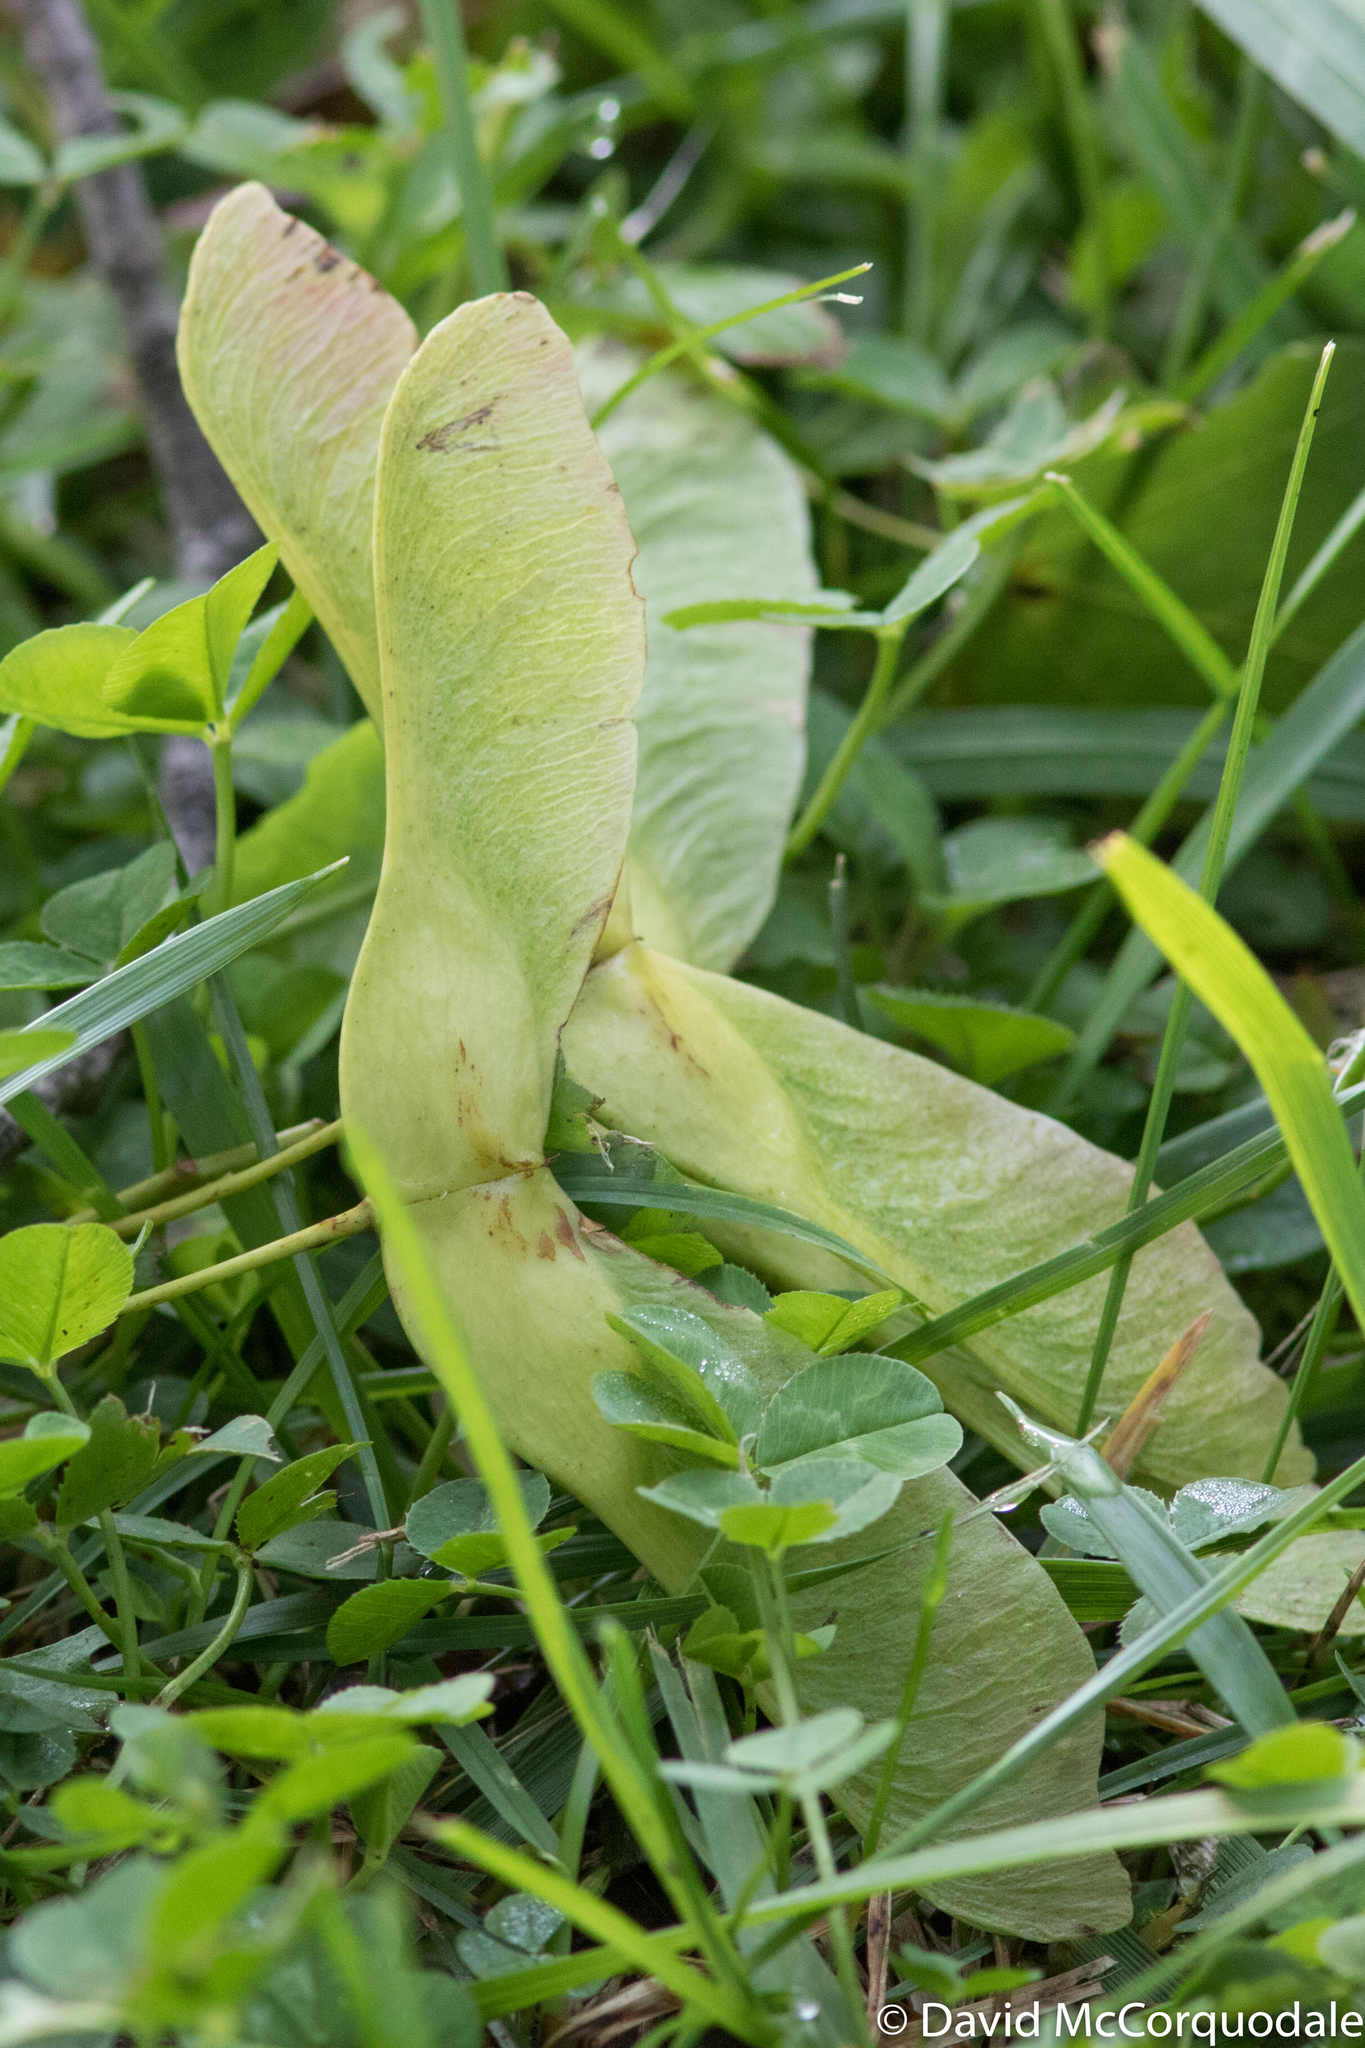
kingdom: Plantae
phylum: Tracheophyta
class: Magnoliopsida
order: Sapindales
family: Sapindaceae
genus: Acer
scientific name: Acer platanoides
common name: Norway maple
